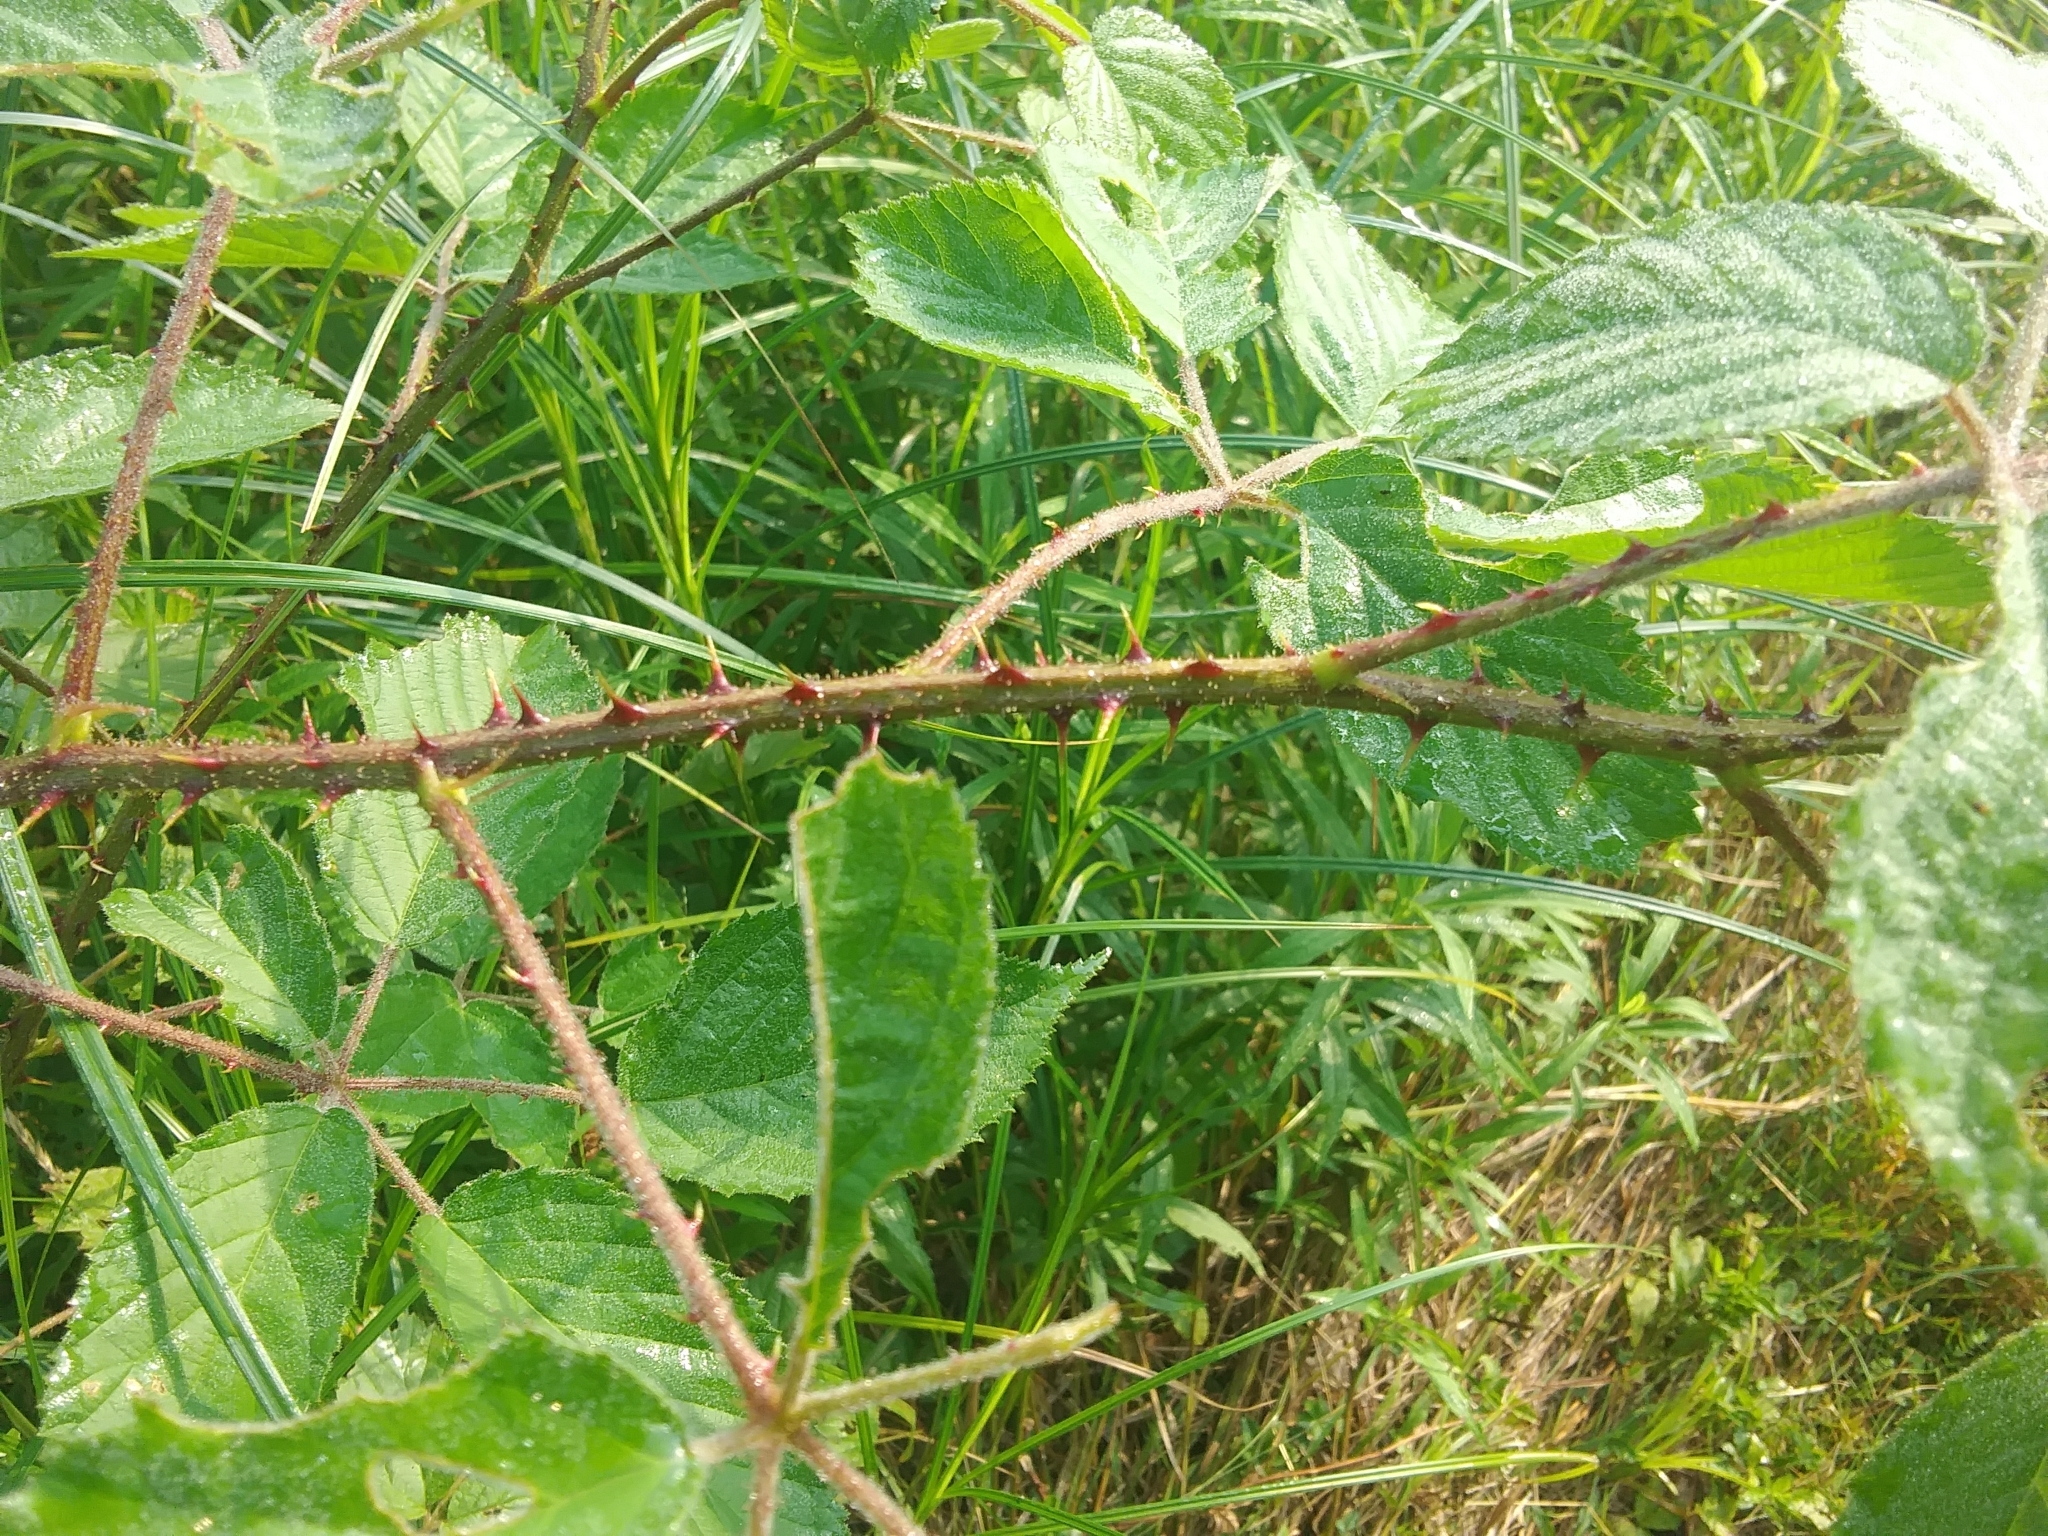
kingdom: Plantae
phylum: Tracheophyta
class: Magnoliopsida
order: Rosales
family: Rosaceae
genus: Rubus
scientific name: Rubus
